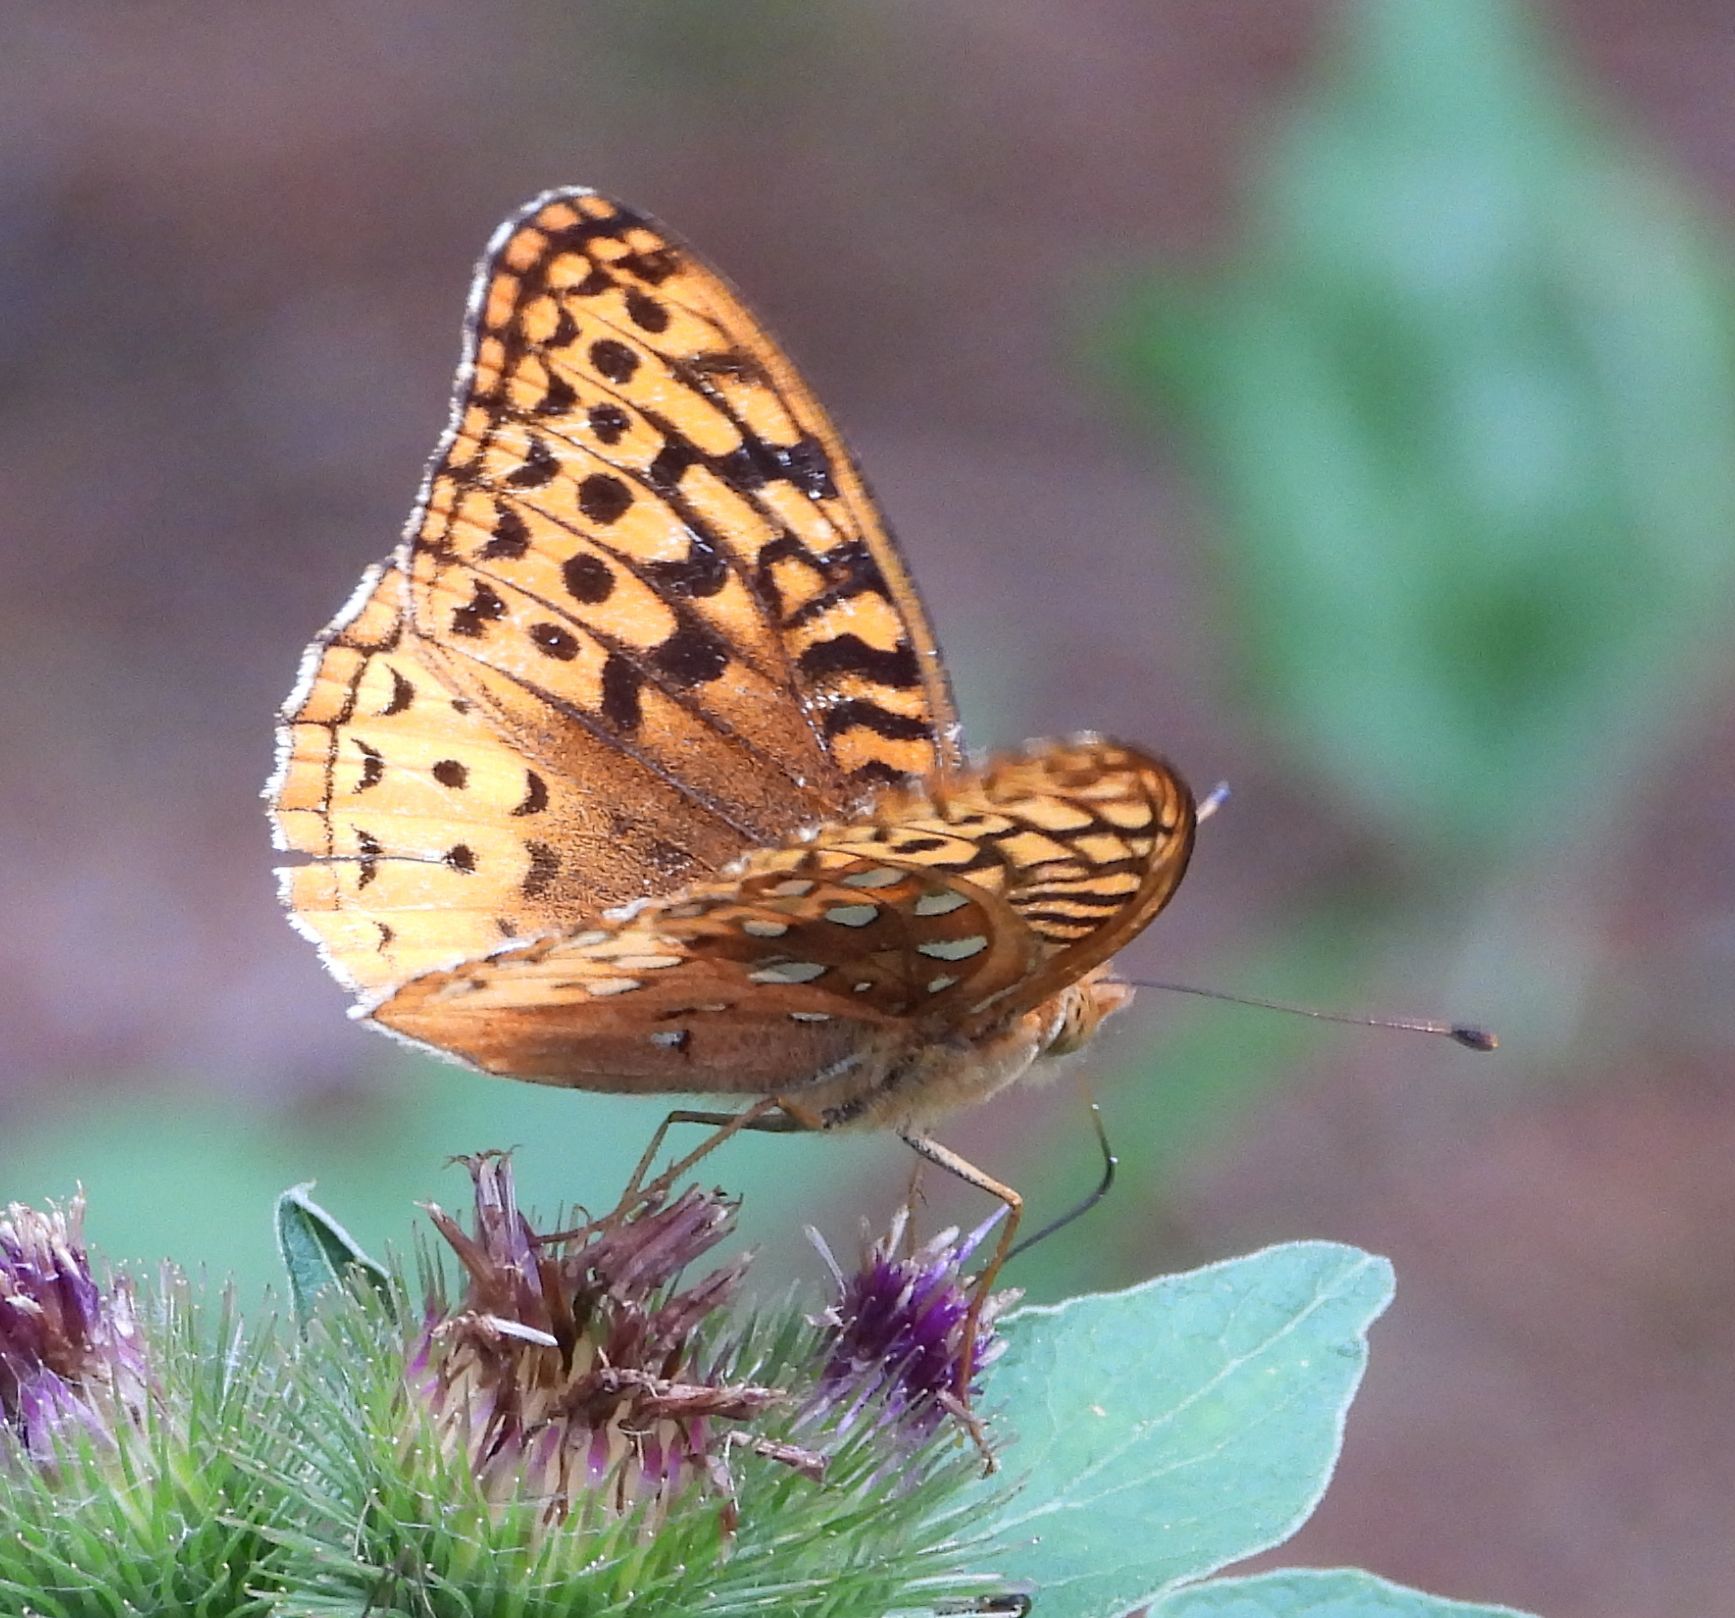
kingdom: Animalia
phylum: Arthropoda
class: Insecta
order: Lepidoptera
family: Nymphalidae
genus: Speyeria
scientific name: Speyeria cybele
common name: Great spangled fritillary
